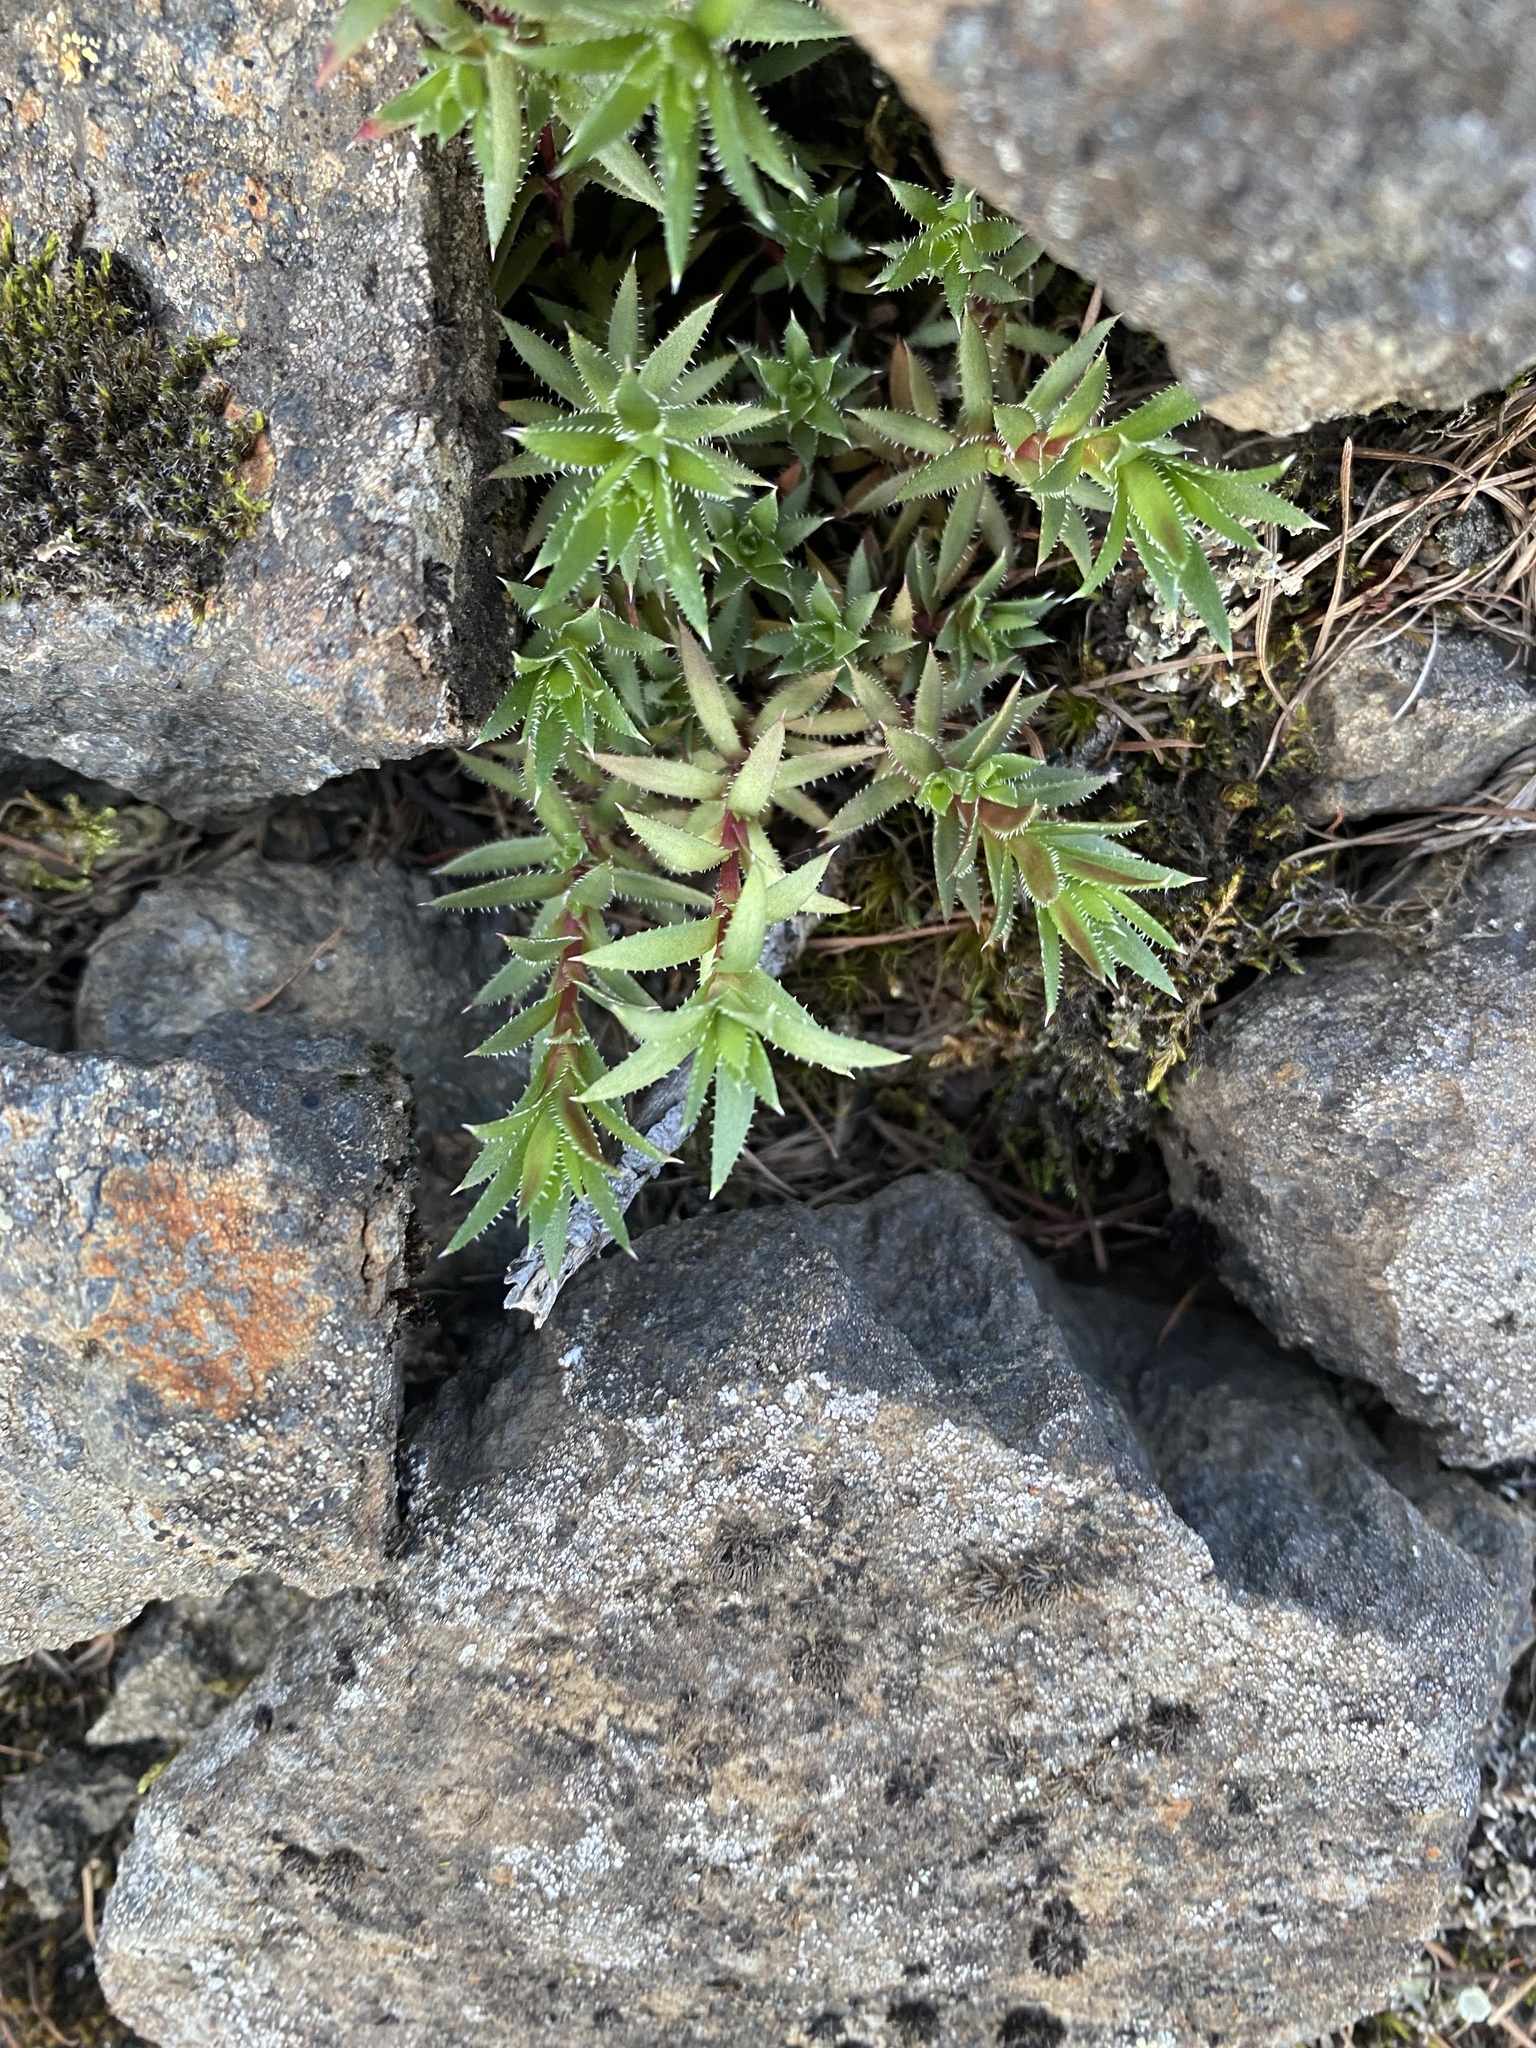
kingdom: Plantae
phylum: Tracheophyta
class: Magnoliopsida
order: Saxifragales
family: Saxifragaceae
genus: Saxifraga
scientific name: Saxifraga
